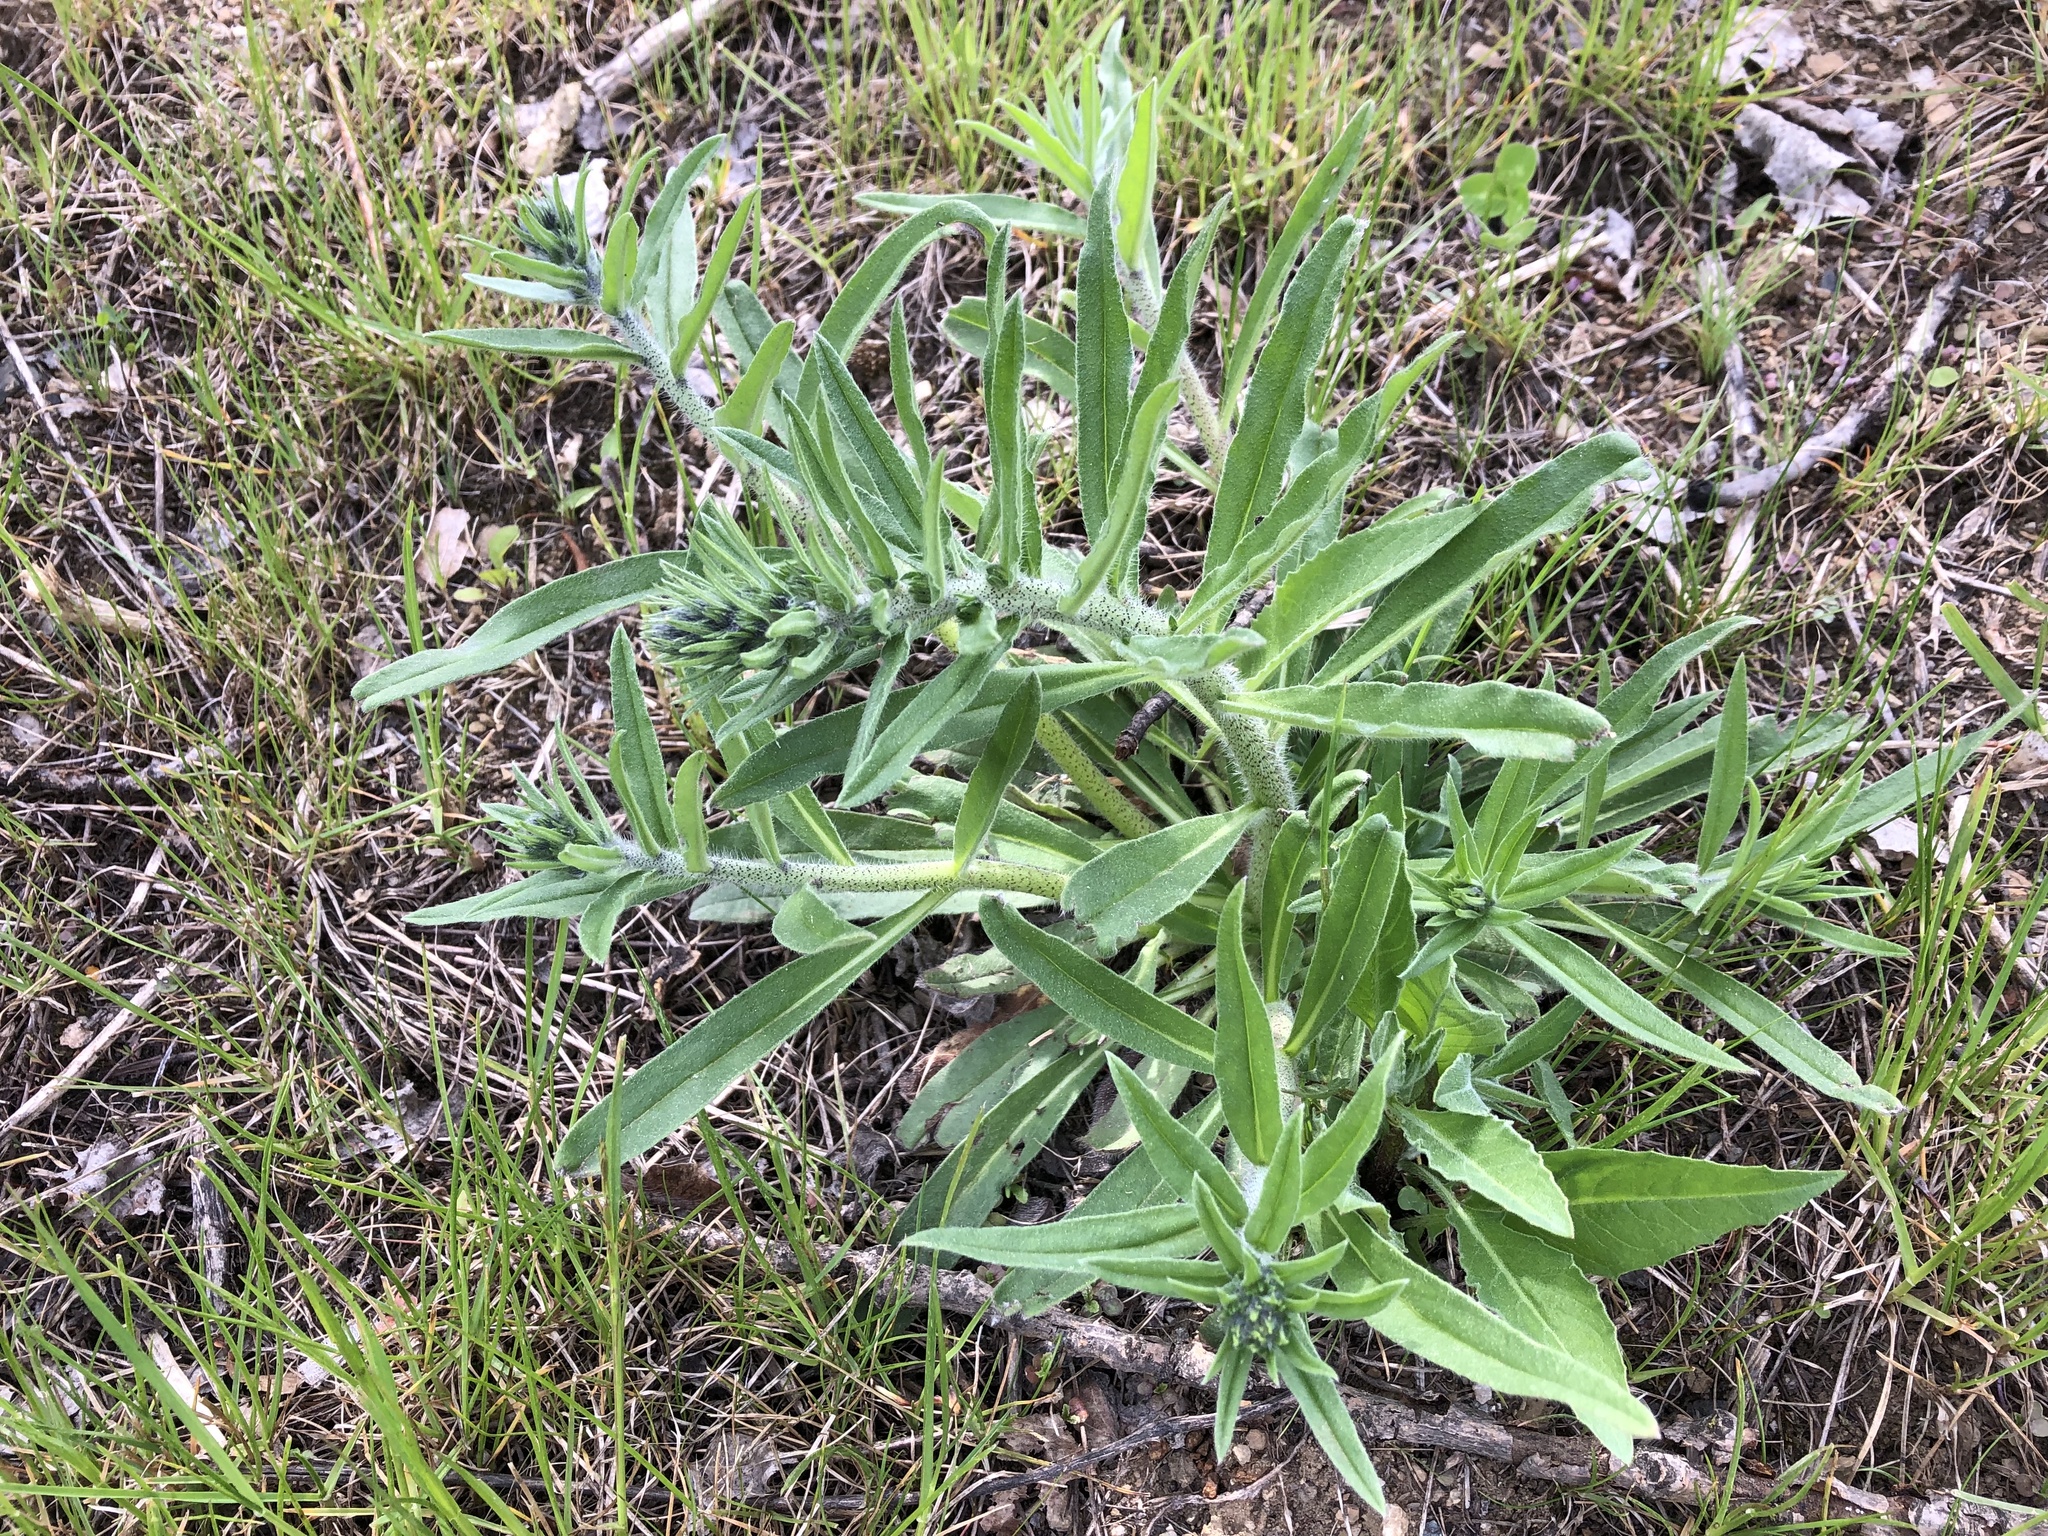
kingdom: Plantae
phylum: Tracheophyta
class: Magnoliopsida
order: Boraginales
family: Boraginaceae
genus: Echium
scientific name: Echium vulgare
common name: Common viper's bugloss
